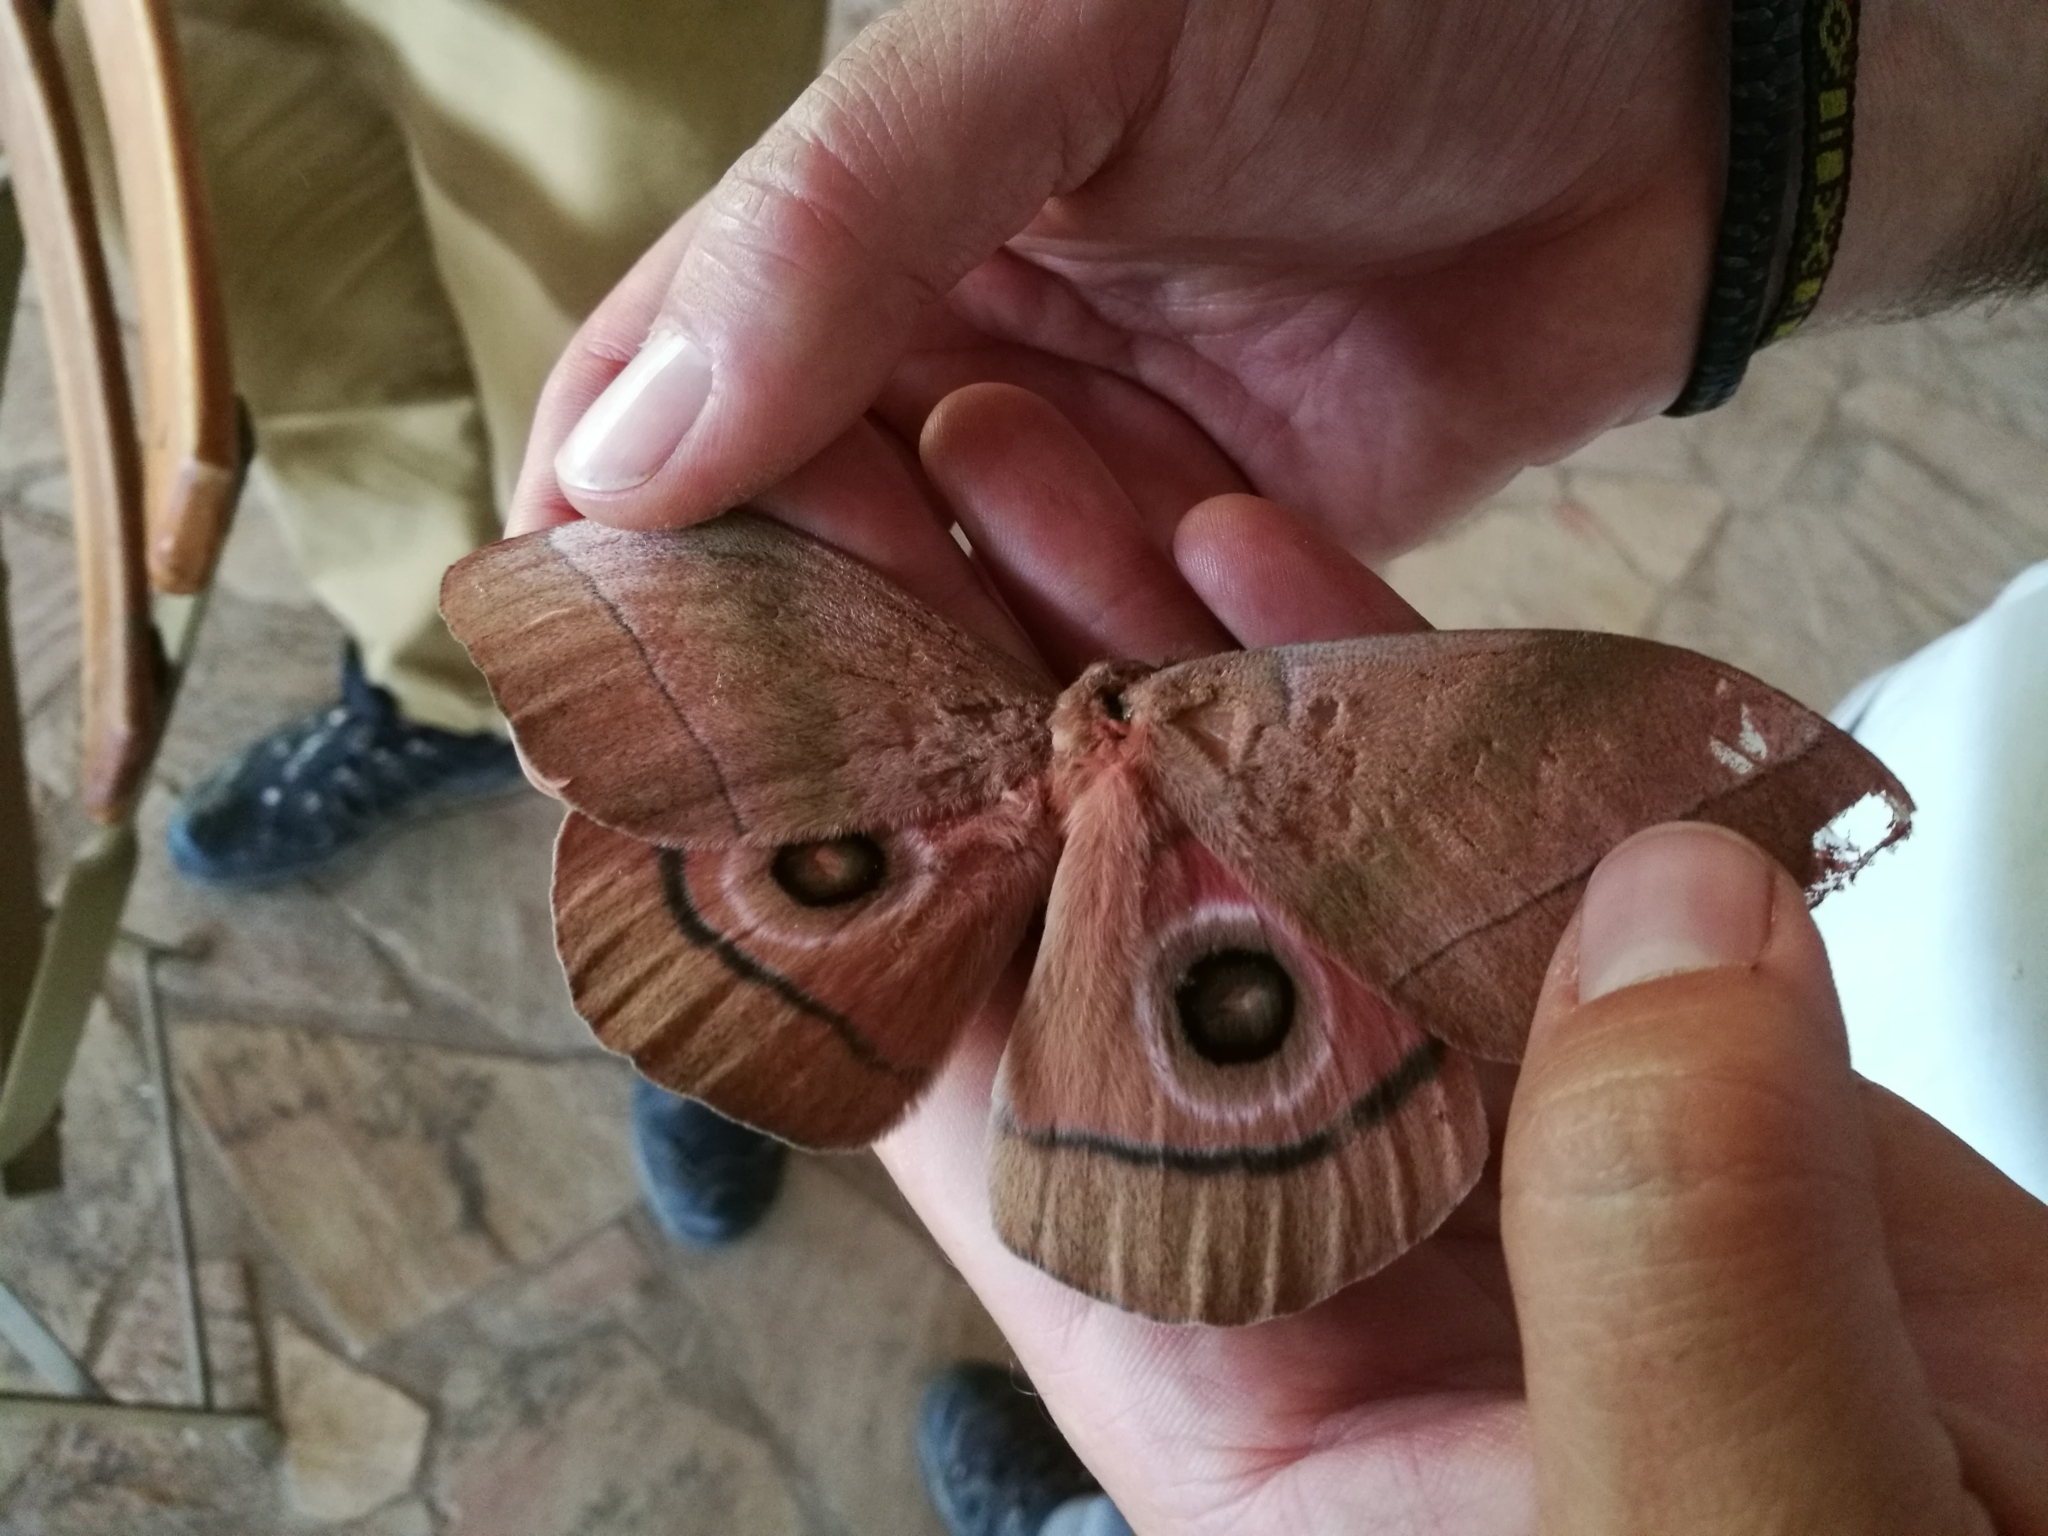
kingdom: Animalia
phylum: Arthropoda
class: Insecta
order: Lepidoptera
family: Saturniidae
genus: Gonimbrasia
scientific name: Gonimbrasia hecate
